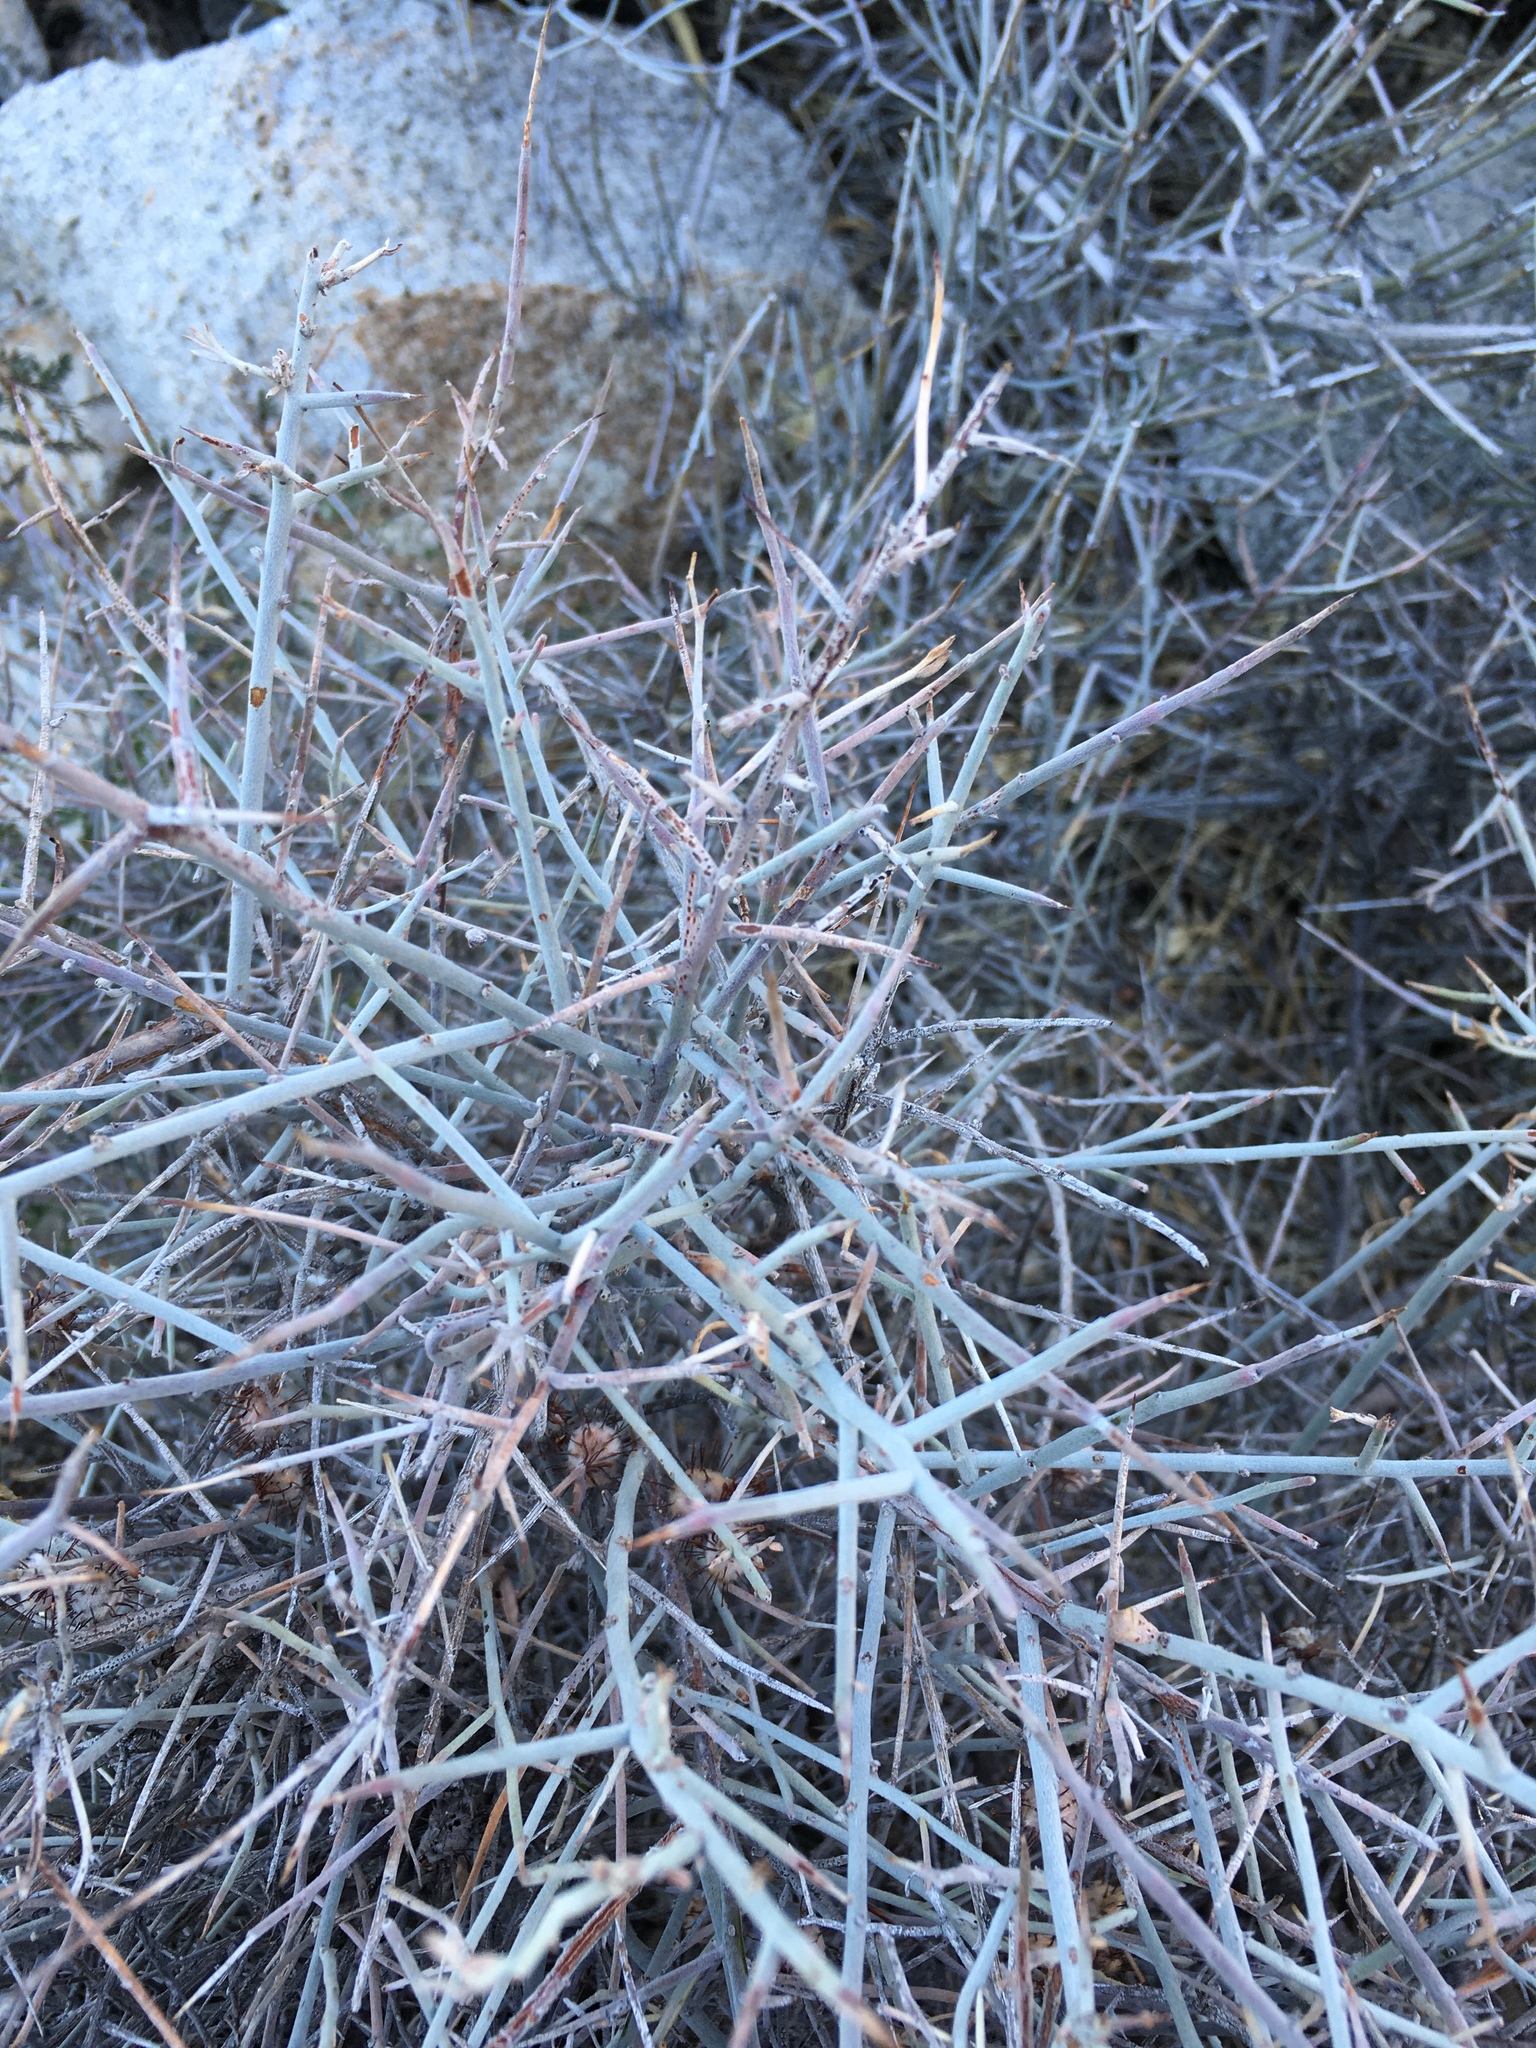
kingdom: Plantae
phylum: Tracheophyta
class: Magnoliopsida
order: Zygophyllales
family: Krameriaceae
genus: Krameria
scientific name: Krameria bicolor
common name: White ratany
